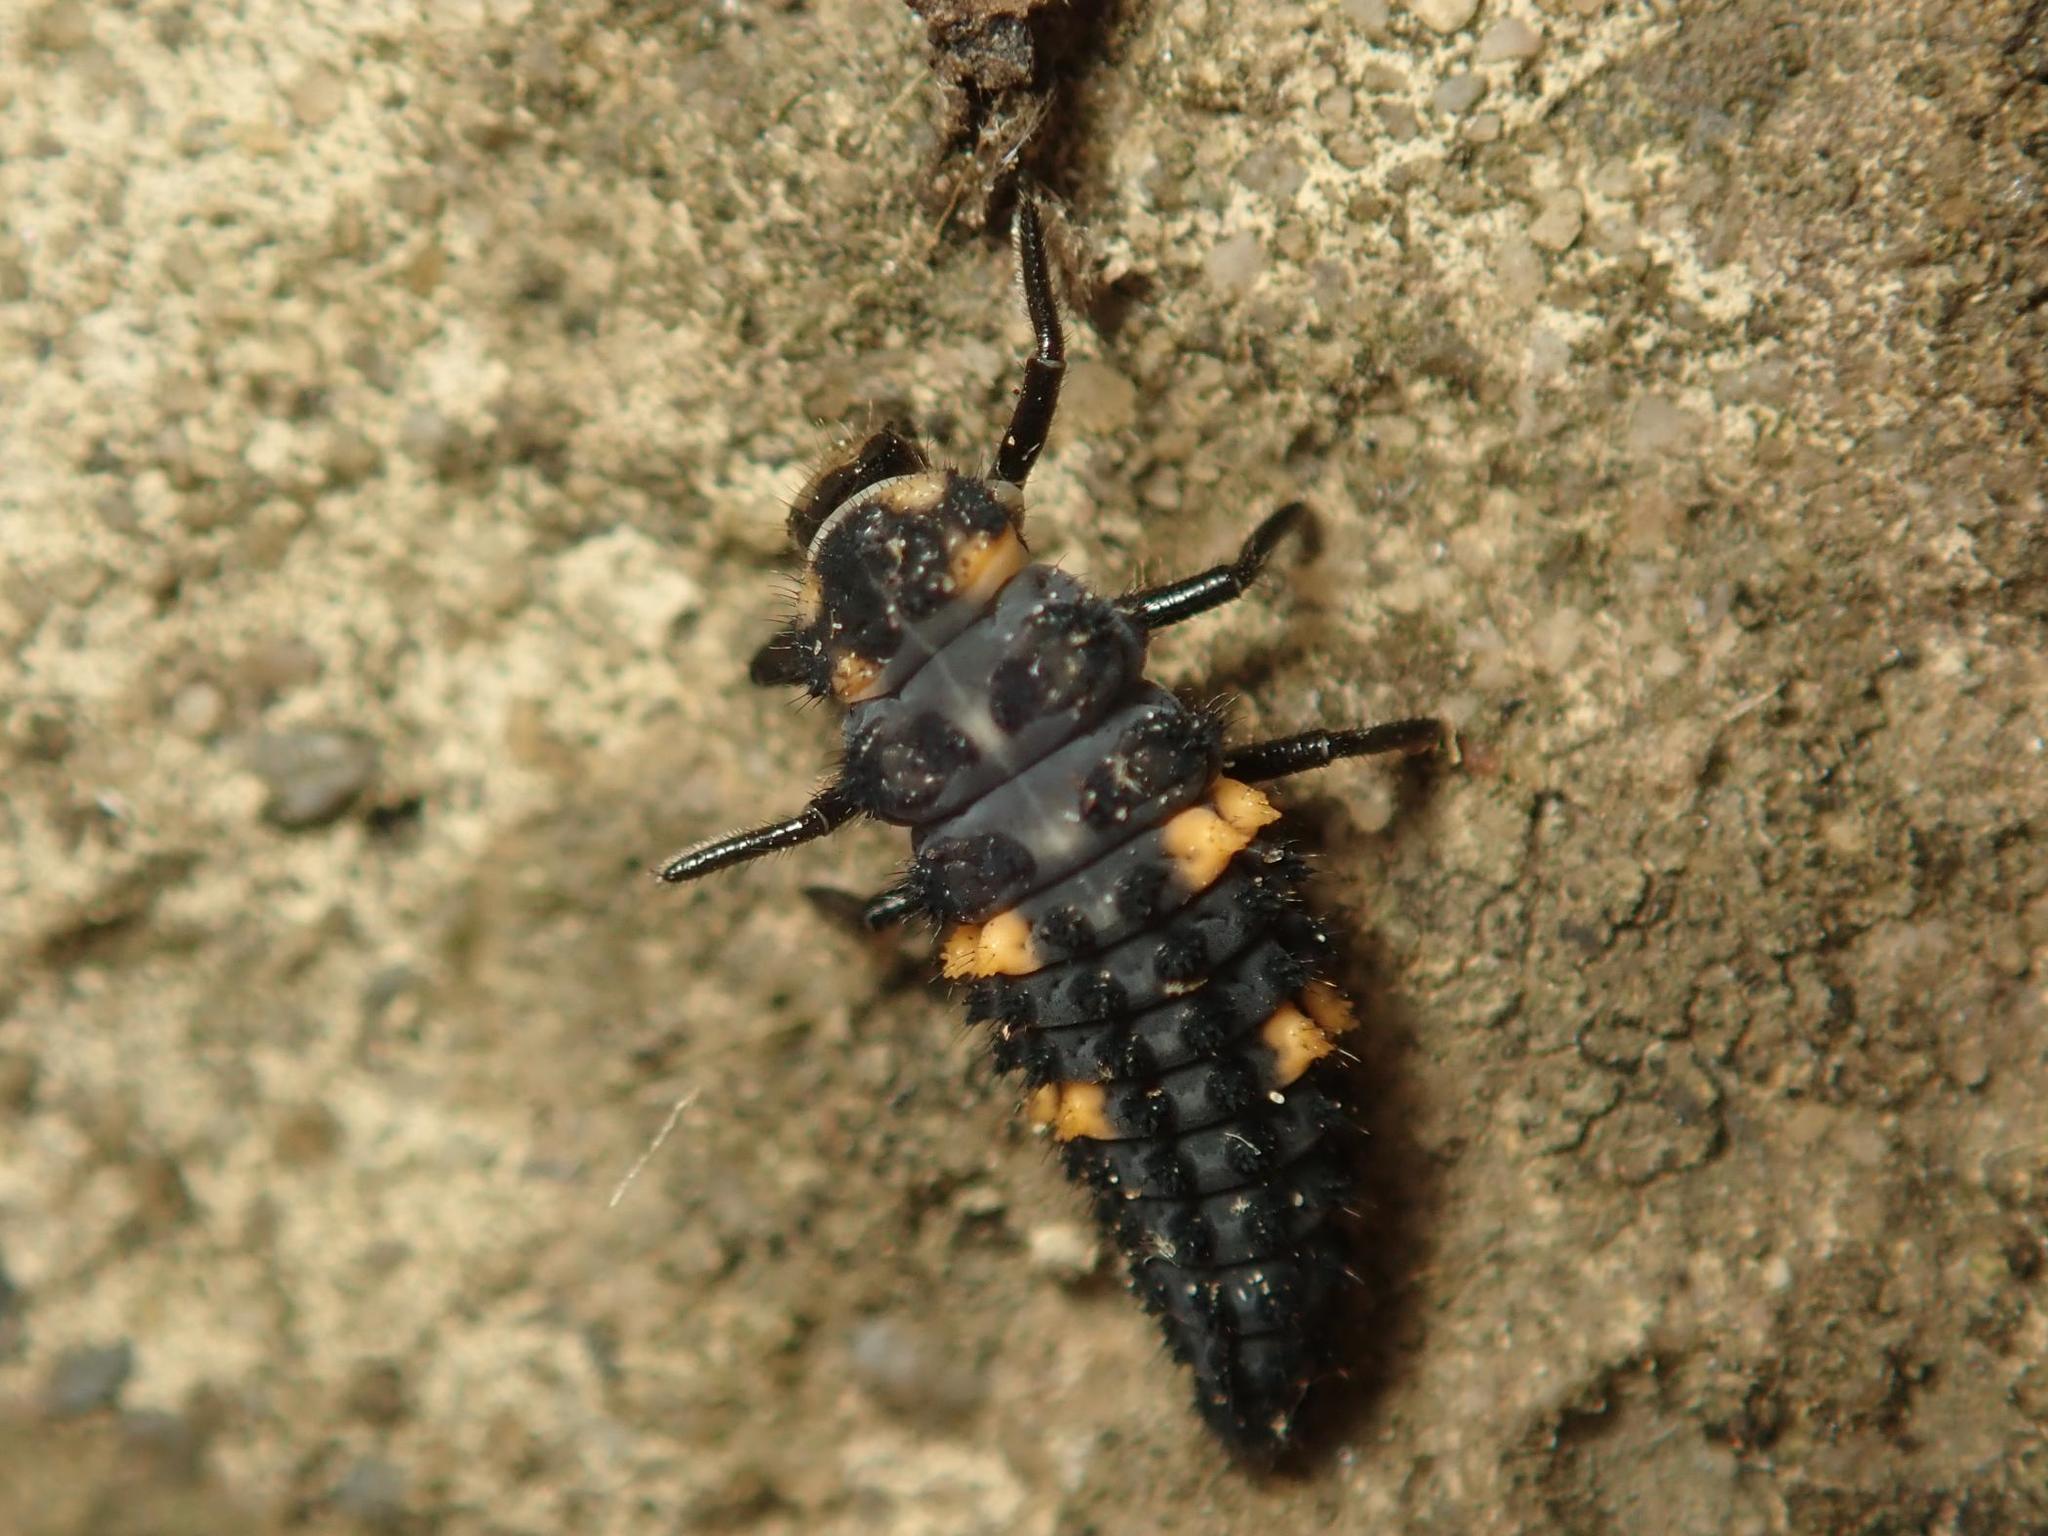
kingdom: Animalia
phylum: Arthropoda
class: Insecta
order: Coleoptera
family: Coccinellidae
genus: Coccinella
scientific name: Coccinella septempunctata
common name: Sevenspotted lady beetle
